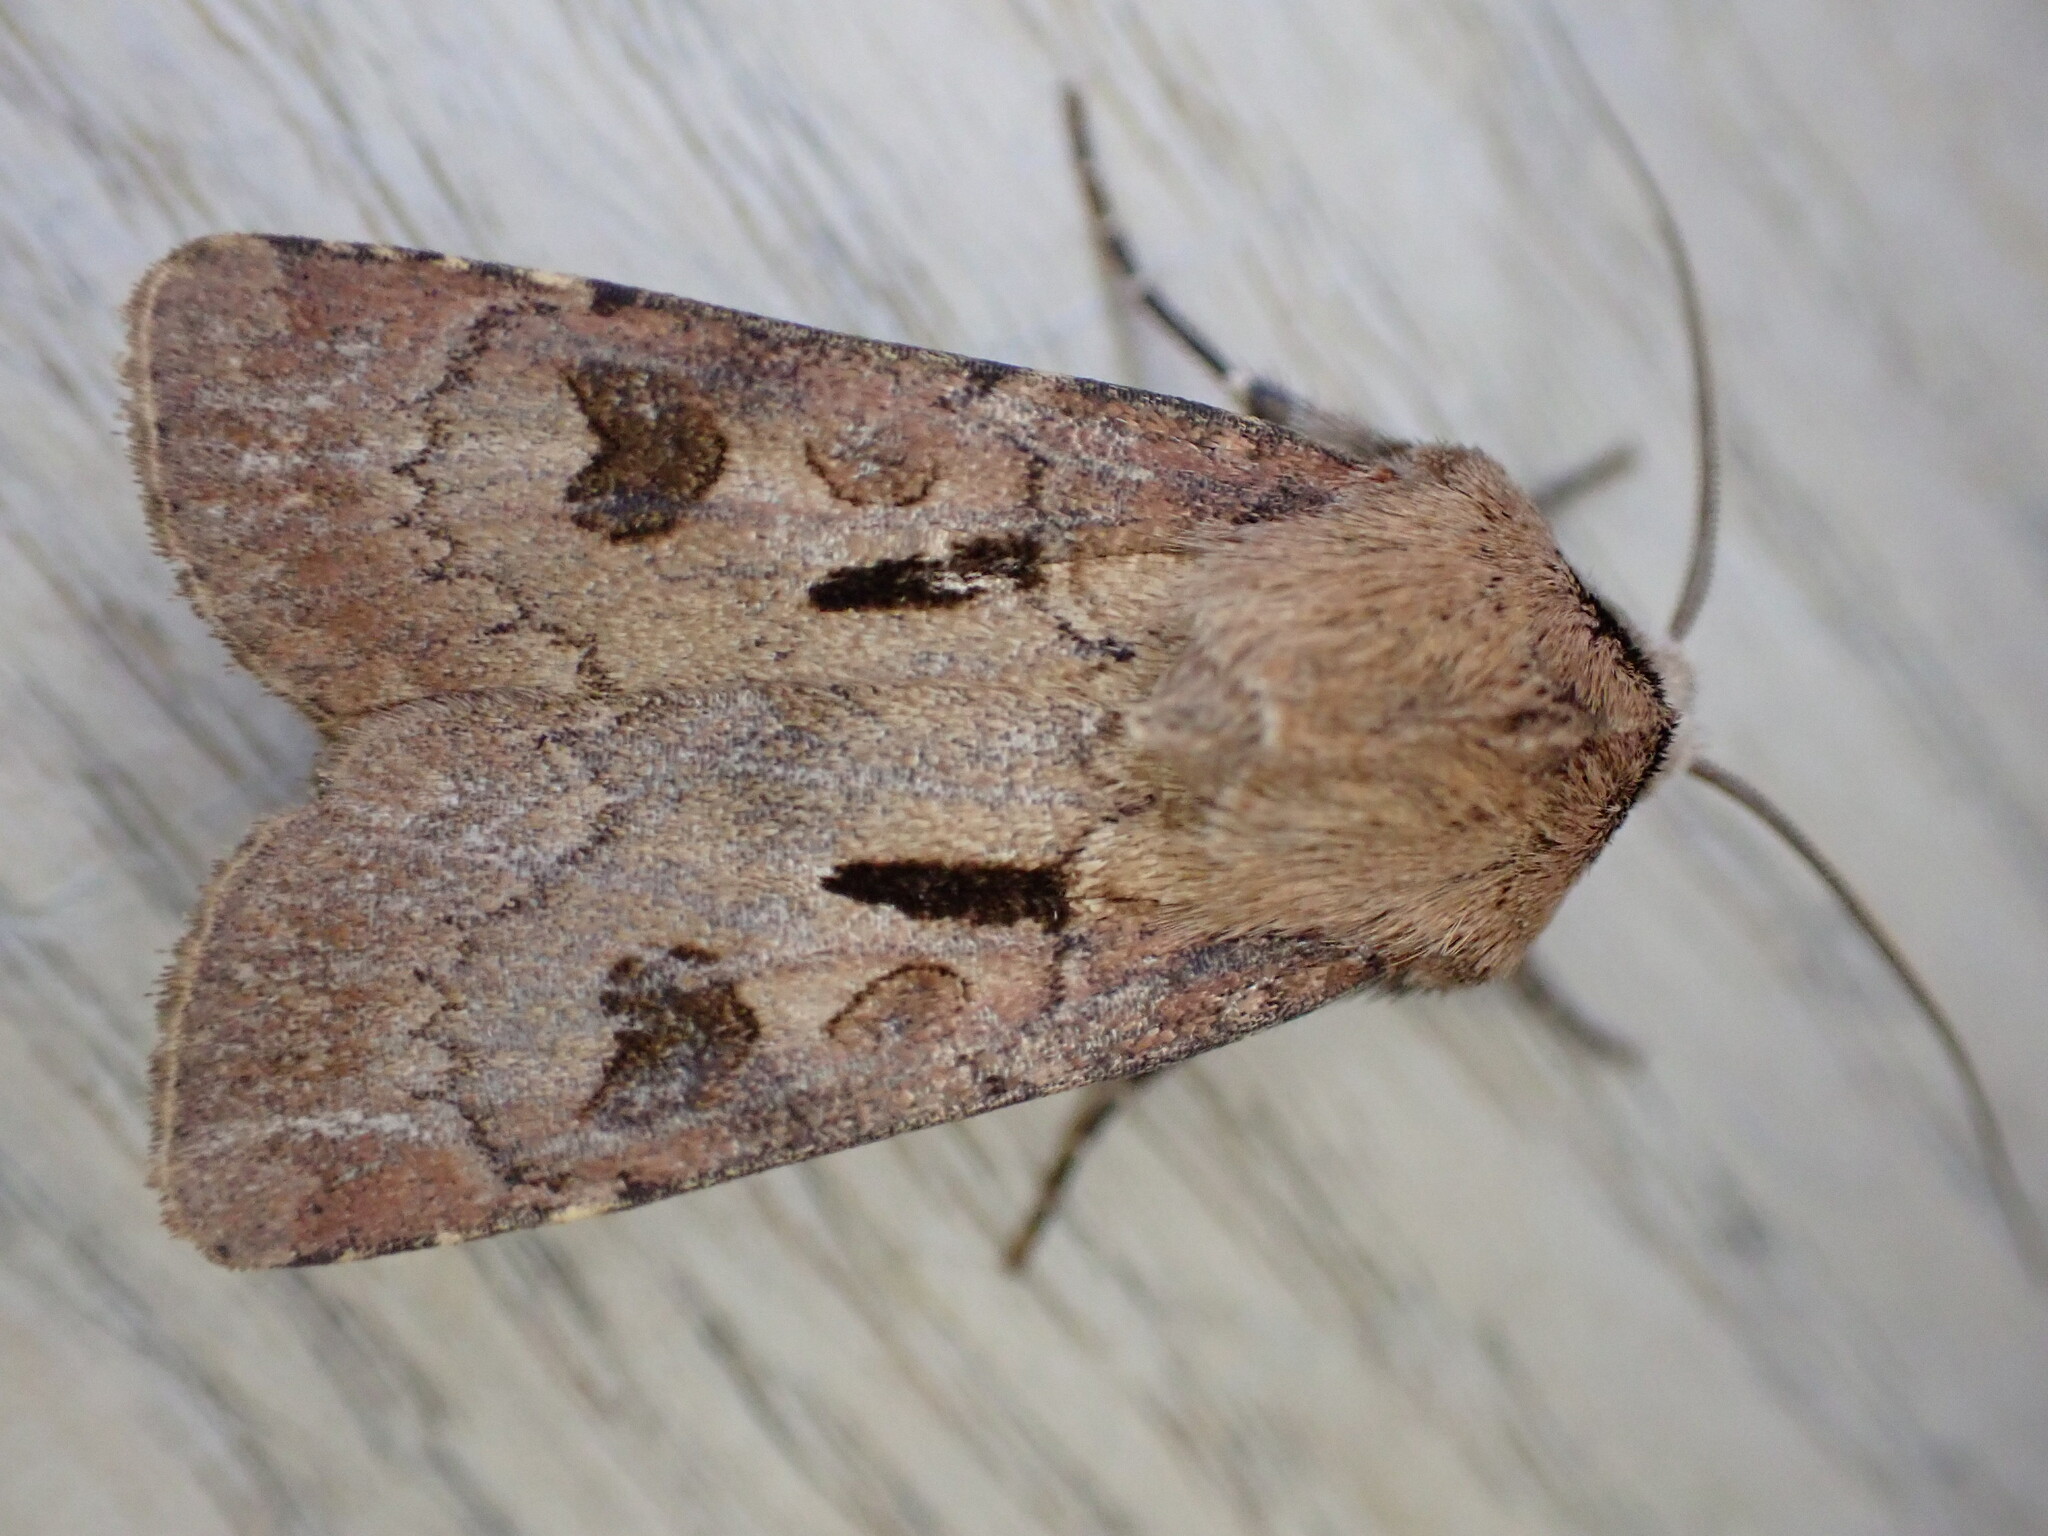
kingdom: Animalia
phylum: Arthropoda
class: Insecta
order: Lepidoptera
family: Noctuidae
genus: Agrotis
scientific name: Agrotis exclamationis
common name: Heart and dart
